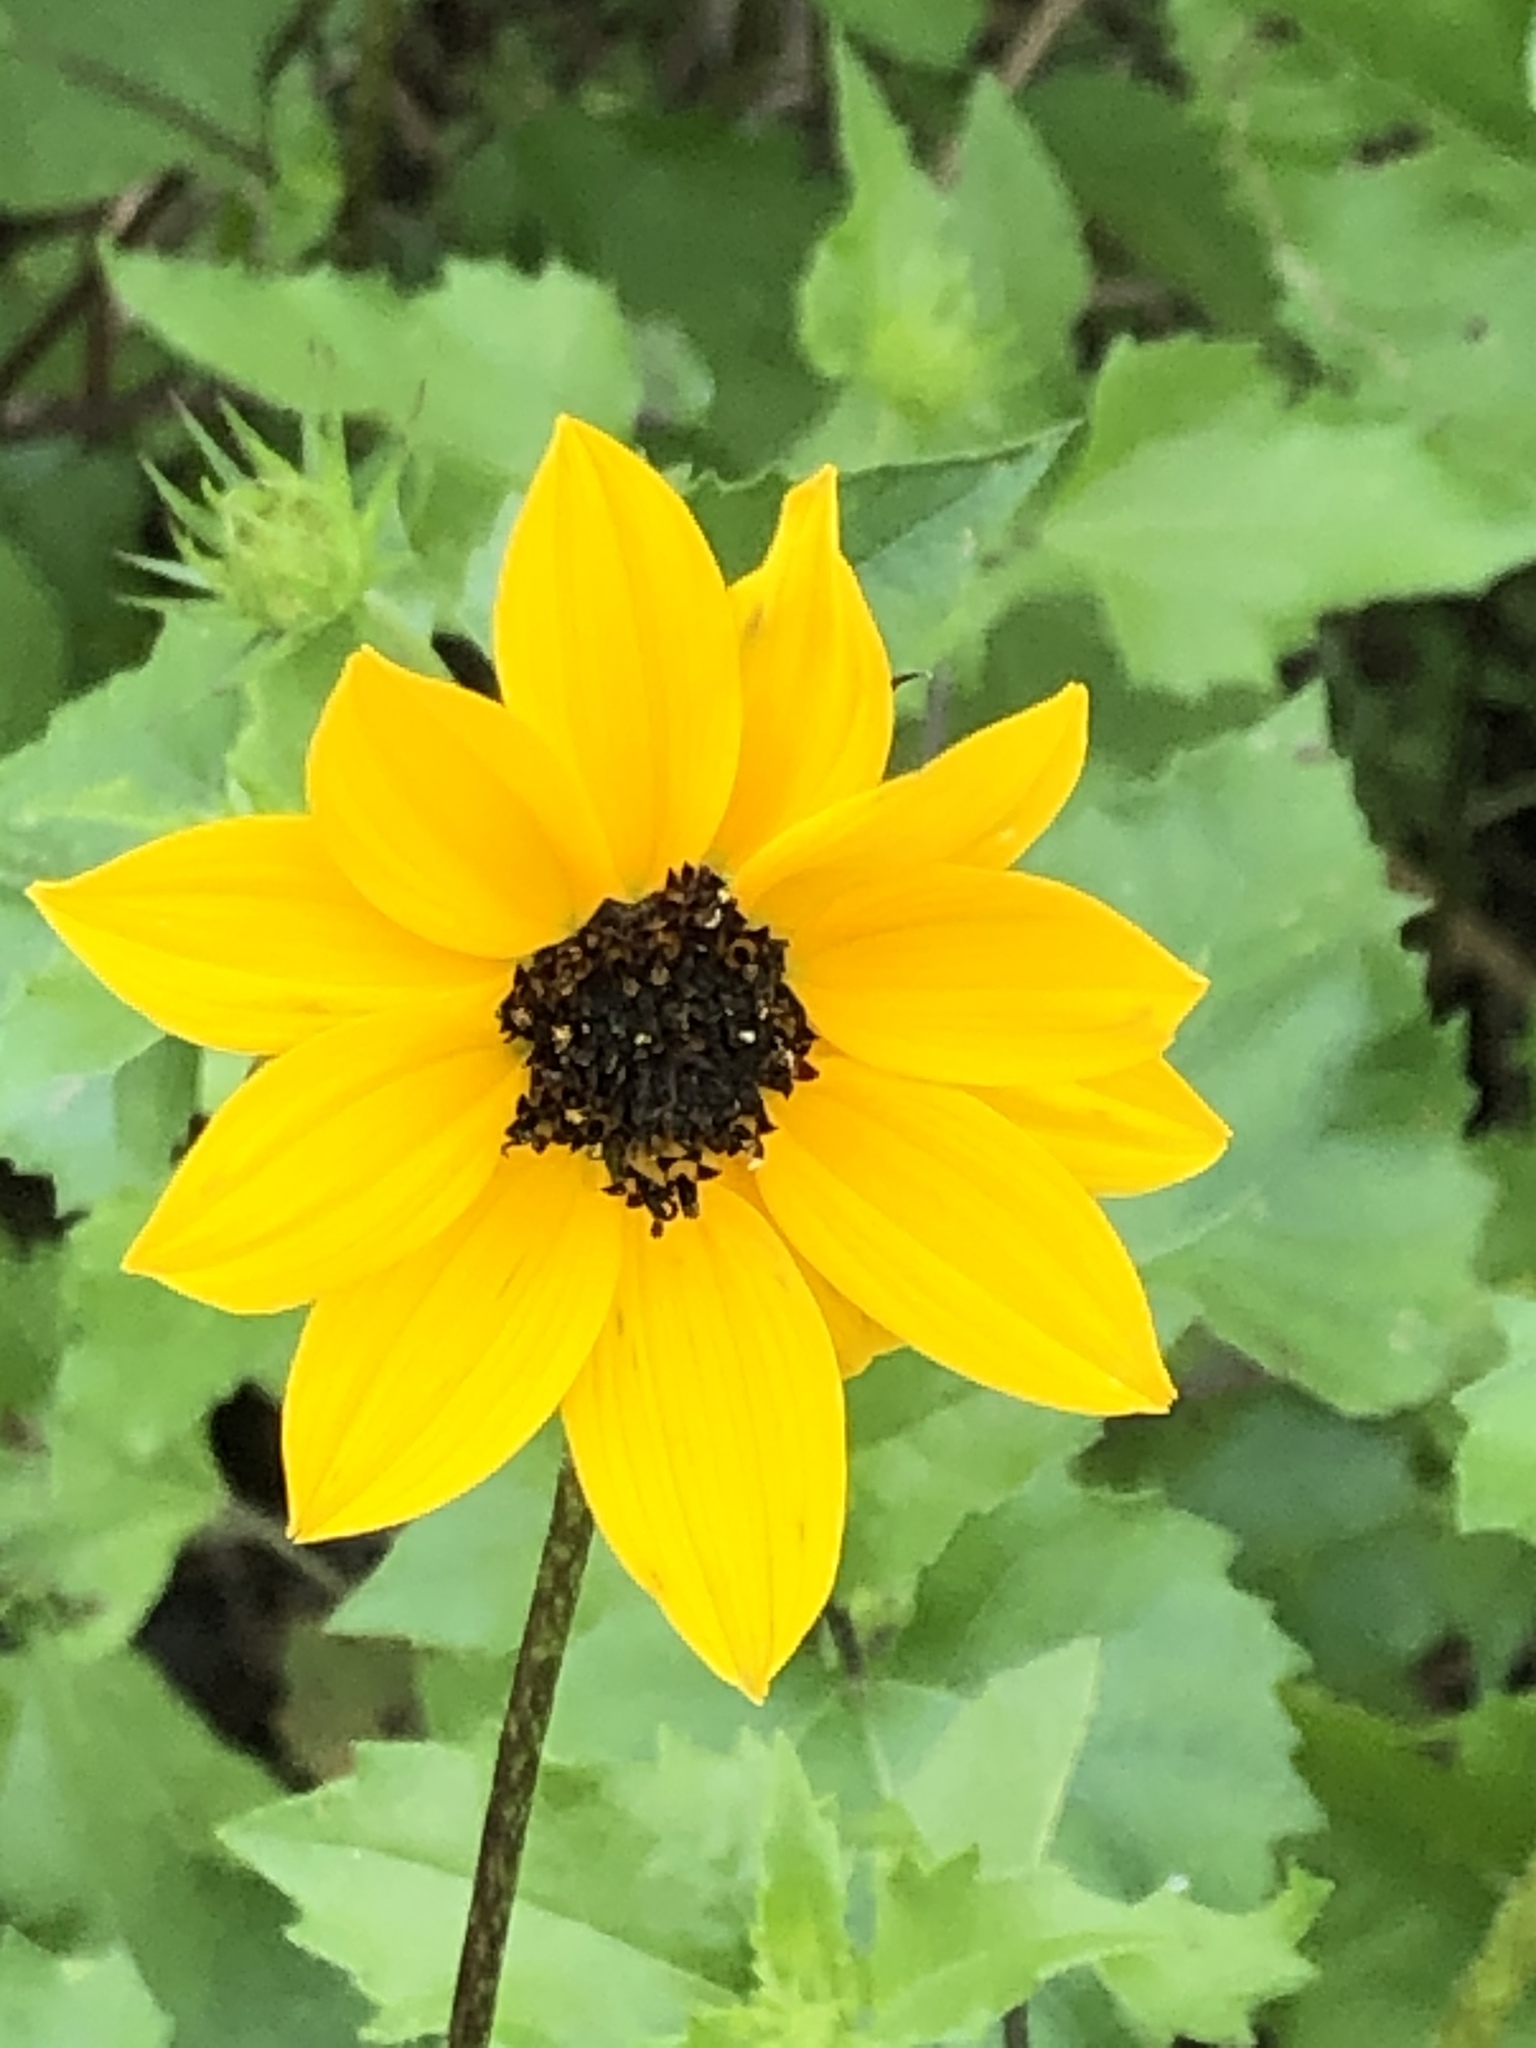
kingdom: Plantae
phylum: Tracheophyta
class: Magnoliopsida
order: Asterales
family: Asteraceae
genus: Helianthus
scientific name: Helianthus debilis
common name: Weak sunflower
